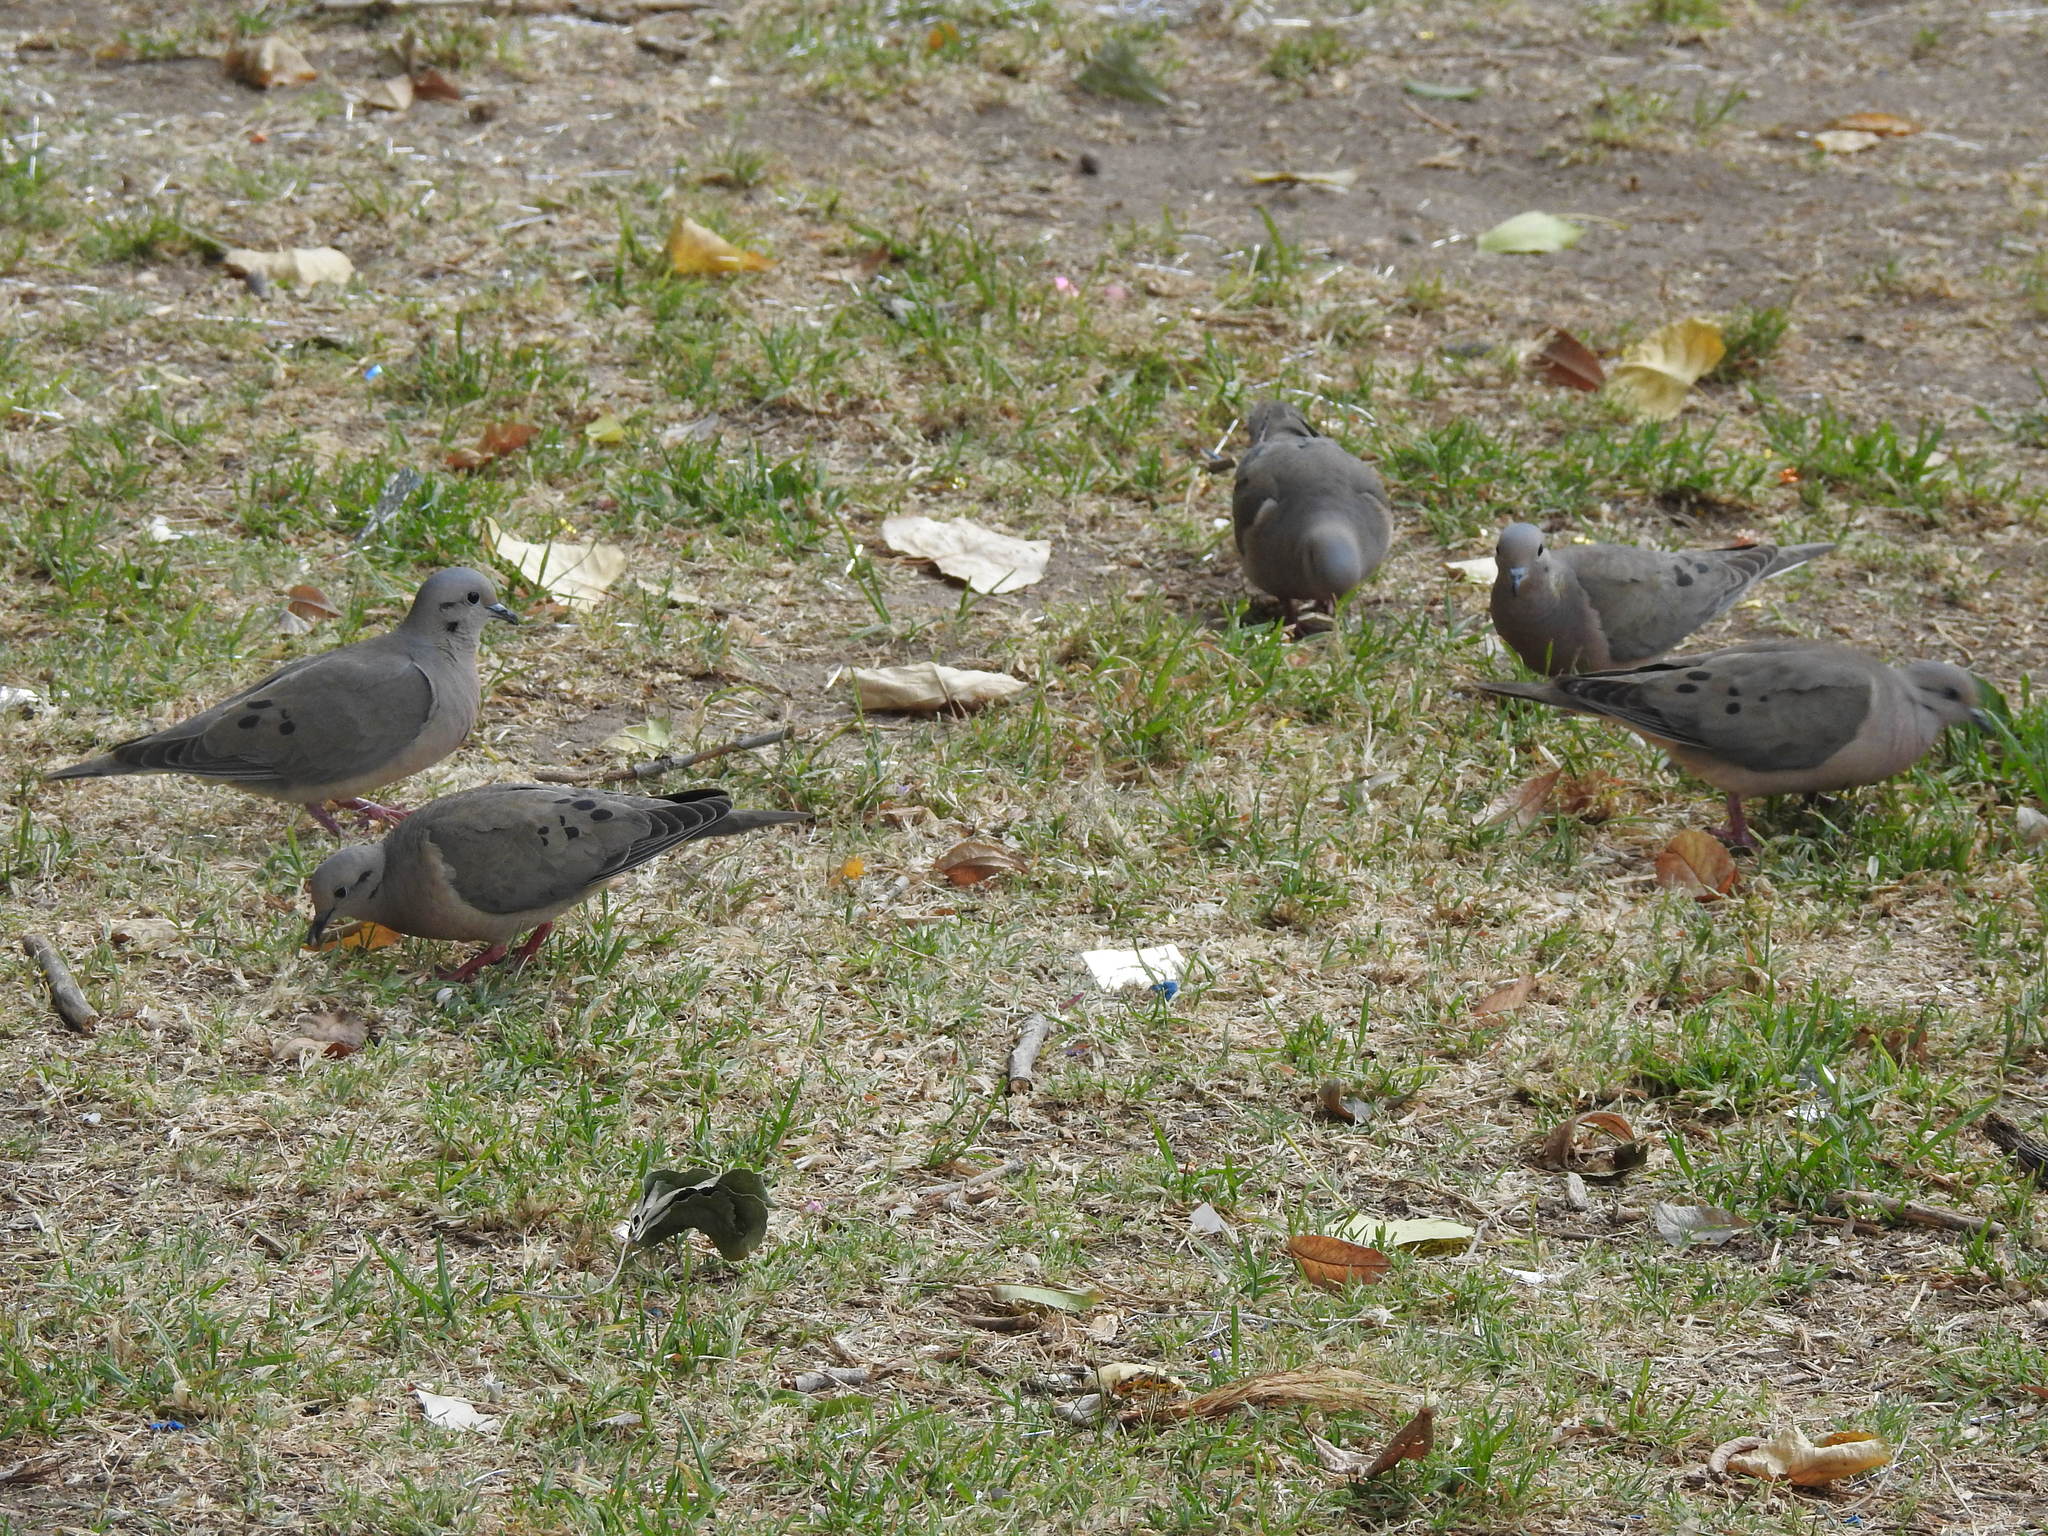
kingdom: Animalia
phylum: Chordata
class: Aves
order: Columbiformes
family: Columbidae
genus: Zenaida
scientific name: Zenaida auriculata
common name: Eared dove
